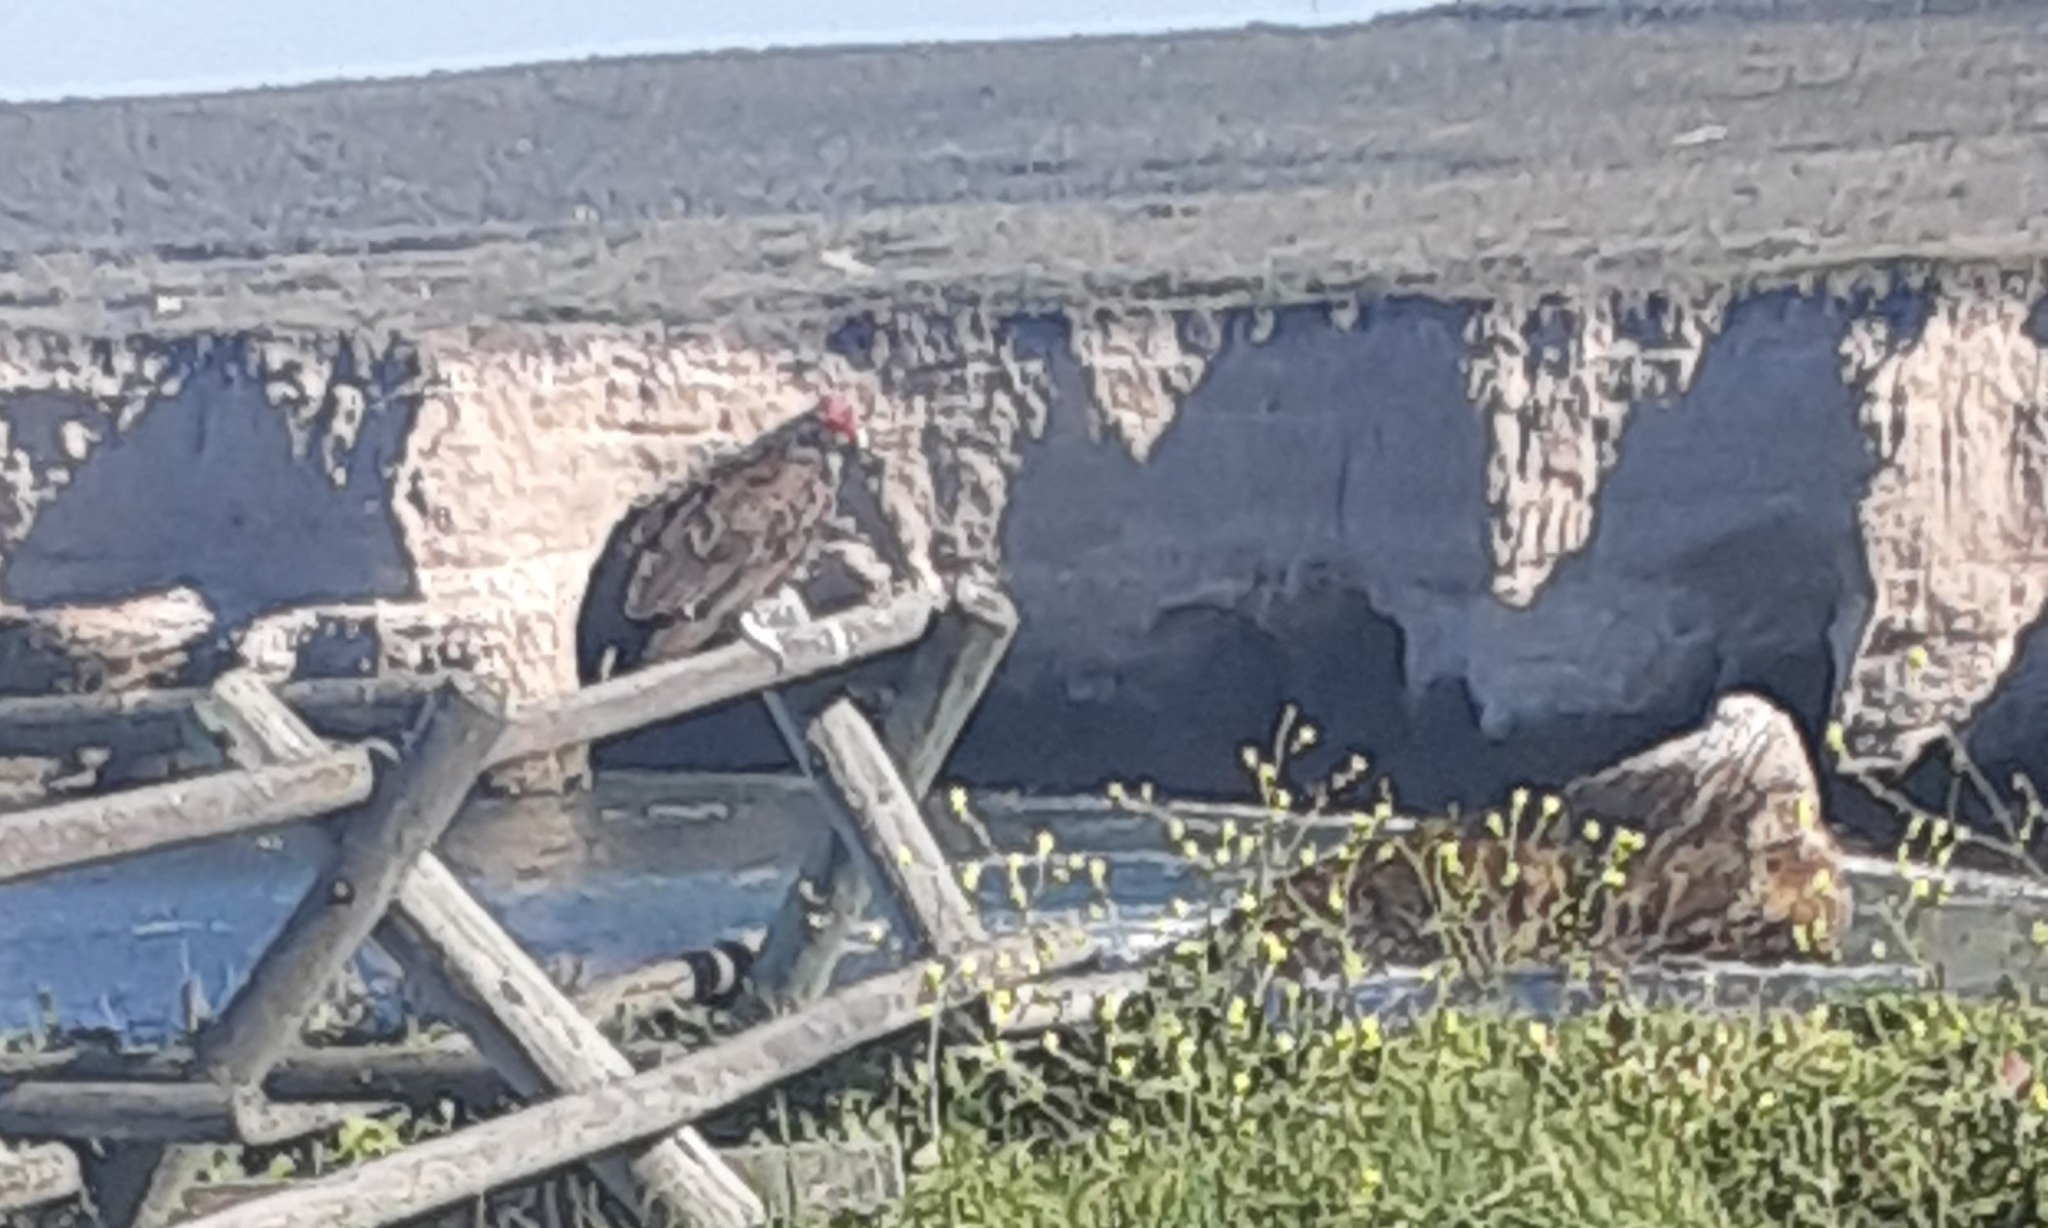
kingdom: Animalia
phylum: Chordata
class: Aves
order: Accipitriformes
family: Cathartidae
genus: Cathartes
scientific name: Cathartes aura
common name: Turkey vulture
